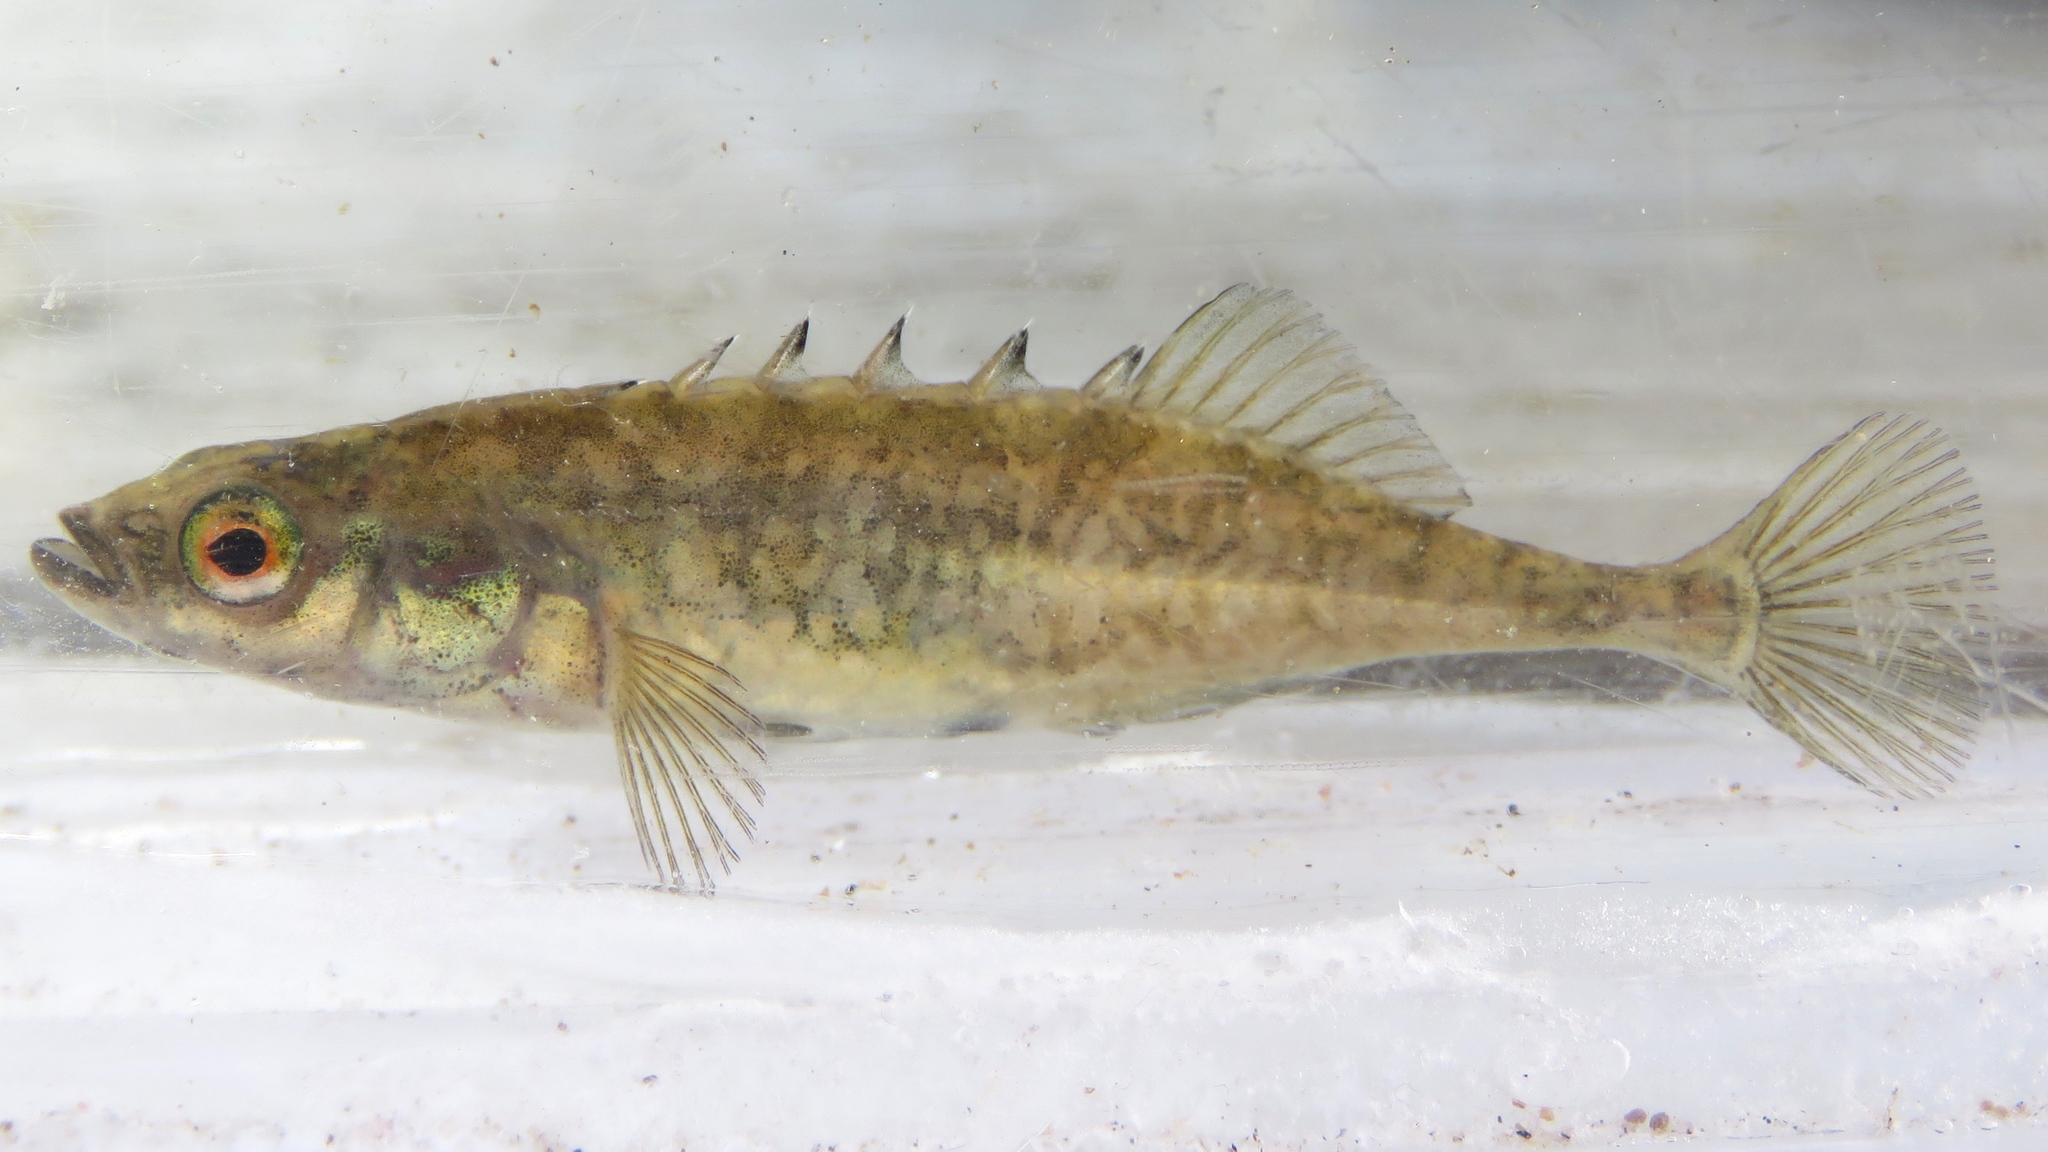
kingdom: Animalia
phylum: Chordata
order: Gasterosteiformes
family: Gasterosteidae
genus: Culaea
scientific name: Culaea inconstans
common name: Brook stickleback
